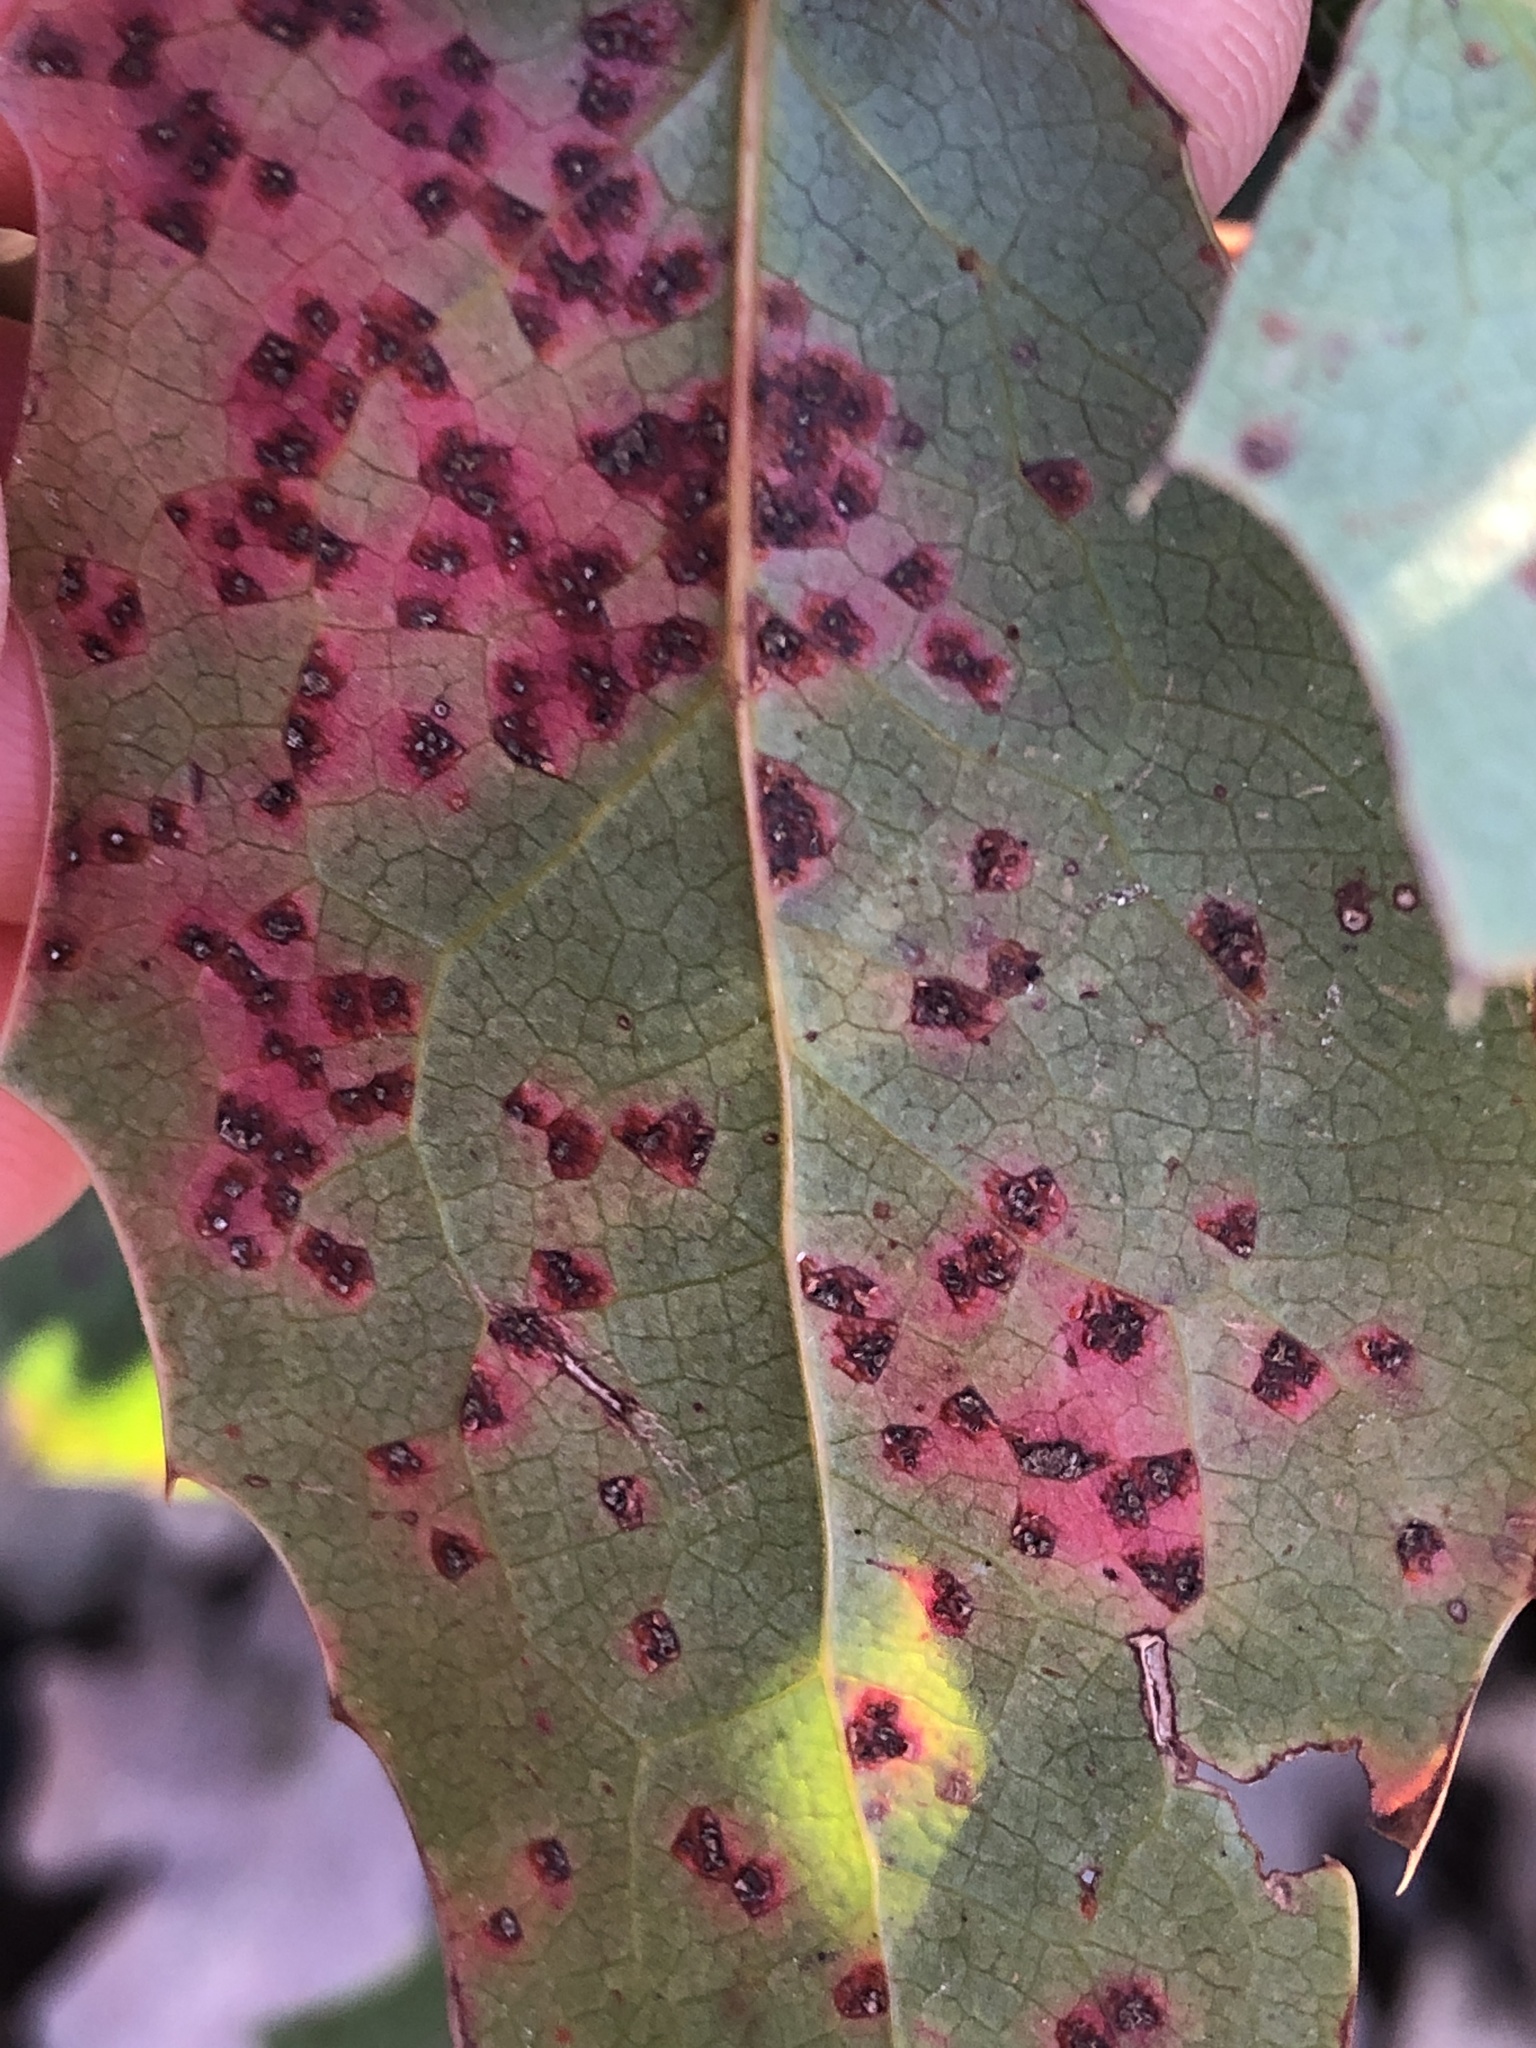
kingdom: Fungi
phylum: Basidiomycota
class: Pucciniomycetes
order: Pucciniales
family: Pucciniaceae
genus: Cumminsiella
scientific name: Cumminsiella mirabilissima
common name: Mahonia rust
